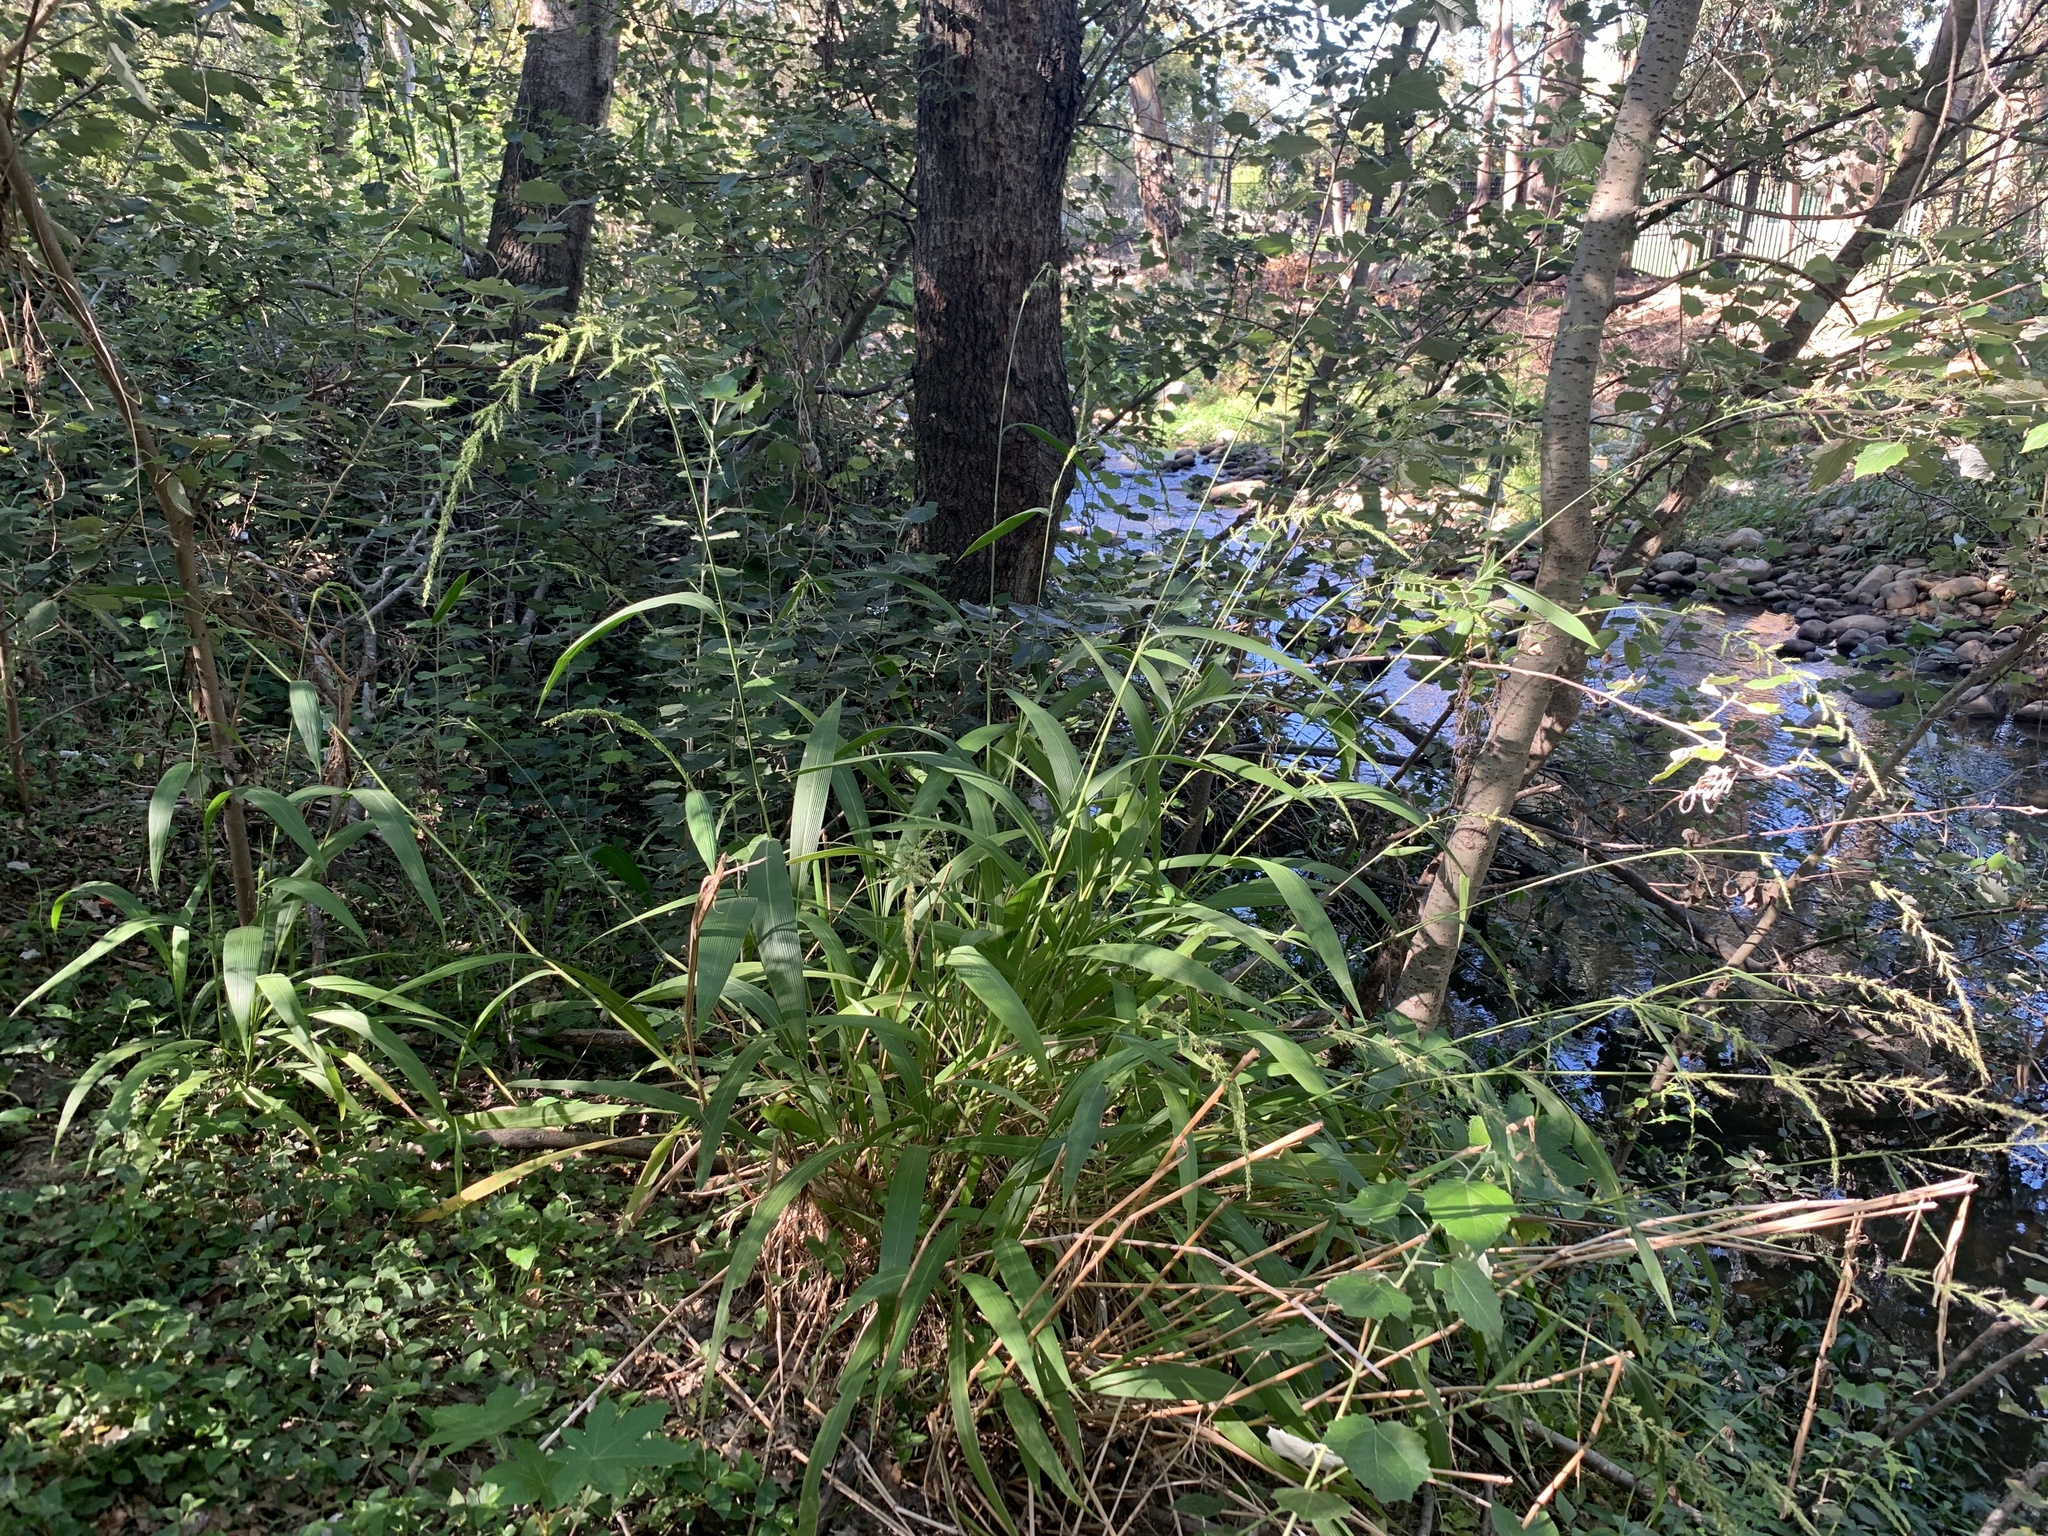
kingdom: Plantae
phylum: Tracheophyta
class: Liliopsida
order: Poales
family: Poaceae
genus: Setaria
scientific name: Setaria megaphylla
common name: Bigleaf bristlegrass
